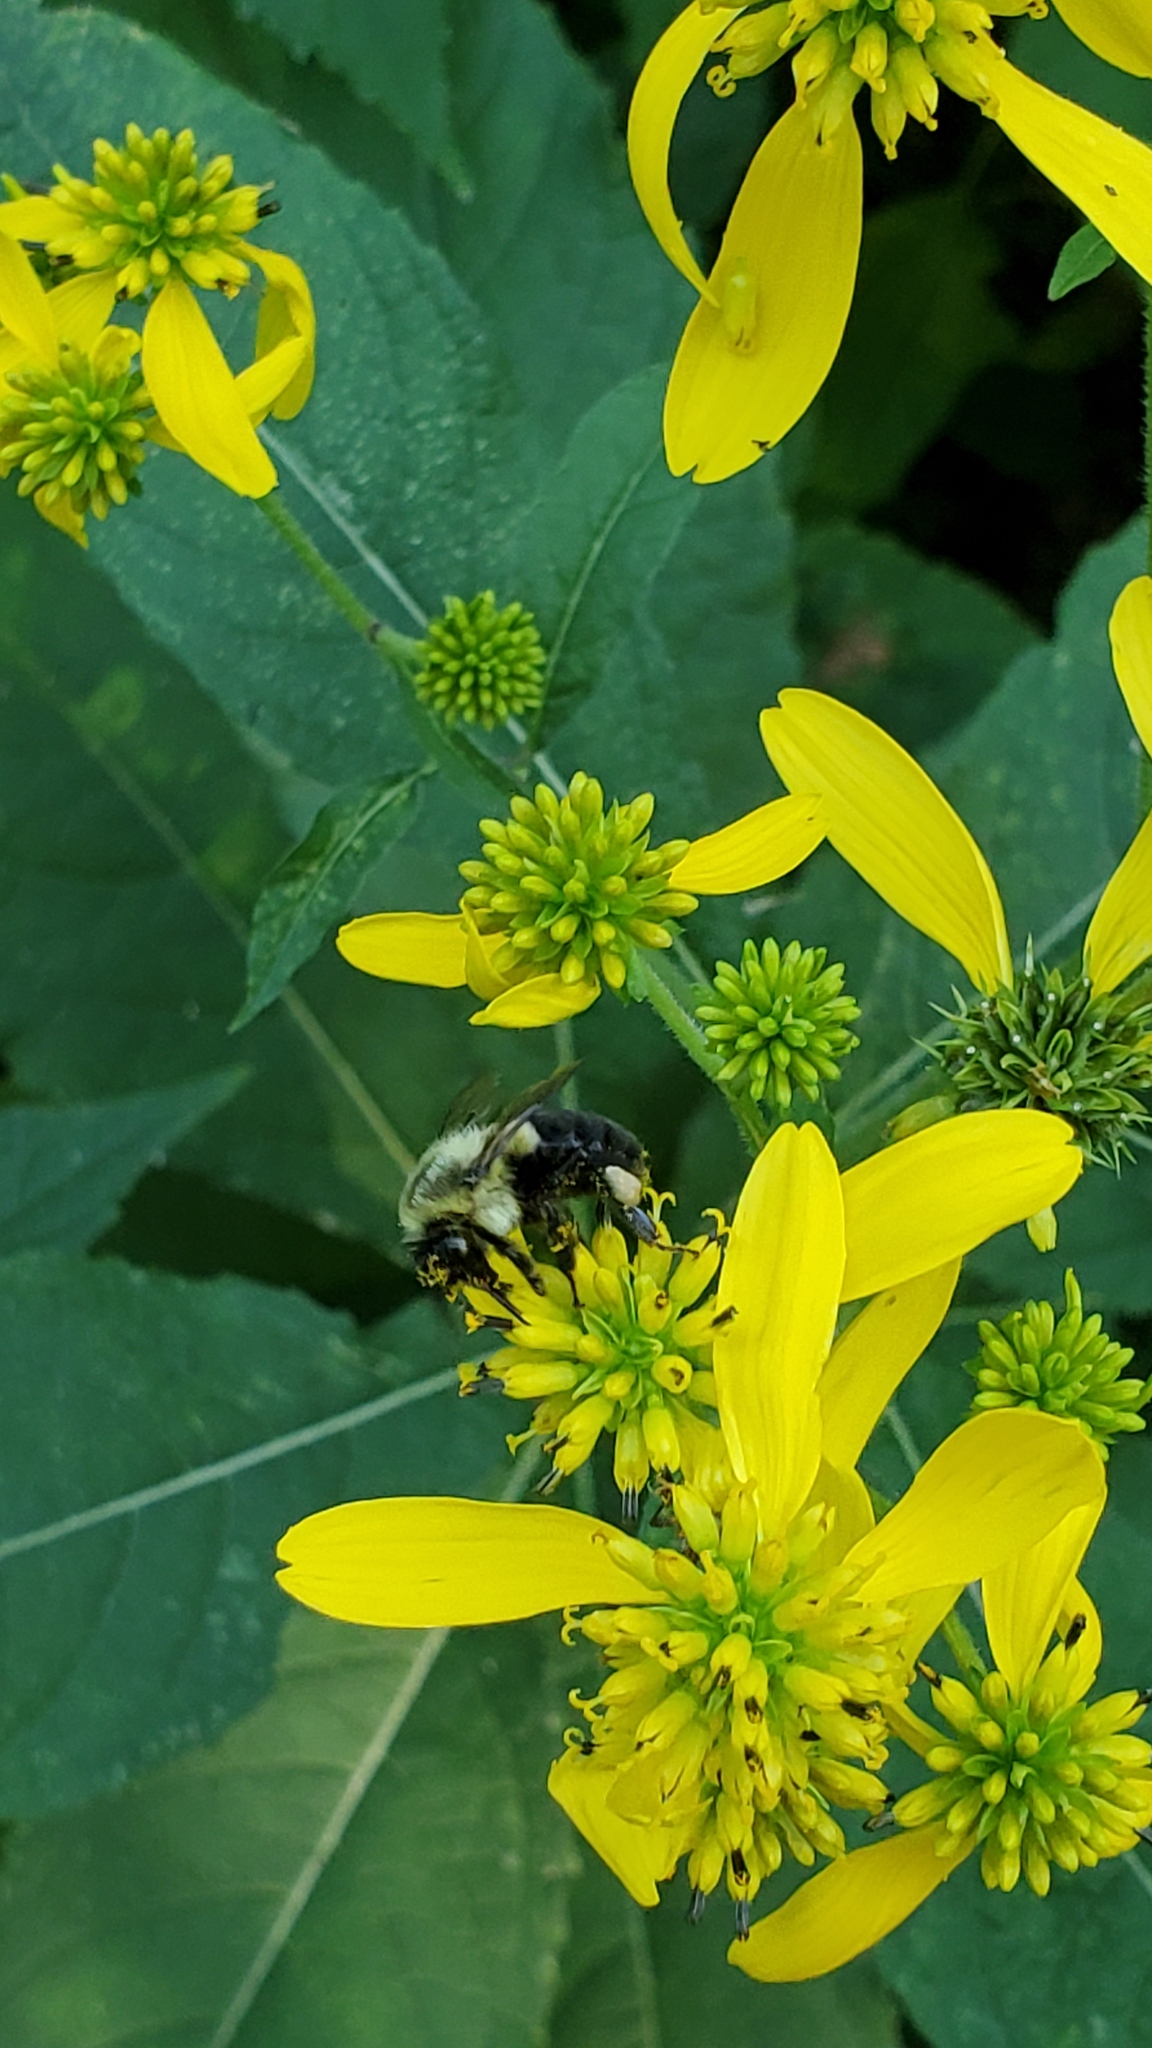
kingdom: Animalia
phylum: Arthropoda
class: Insecta
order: Hymenoptera
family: Apidae
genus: Bombus
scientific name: Bombus impatiens
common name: Common eastern bumble bee
